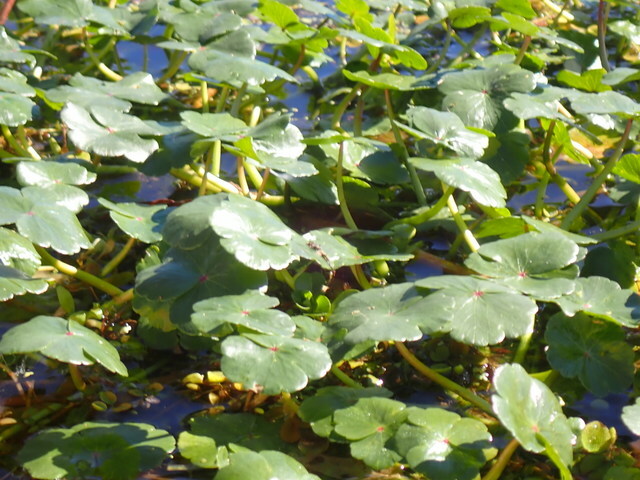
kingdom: Plantae
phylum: Tracheophyta
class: Magnoliopsida
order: Apiales
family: Araliaceae
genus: Hydrocotyle
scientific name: Hydrocotyle ranunculoides
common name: Floating pennywort
